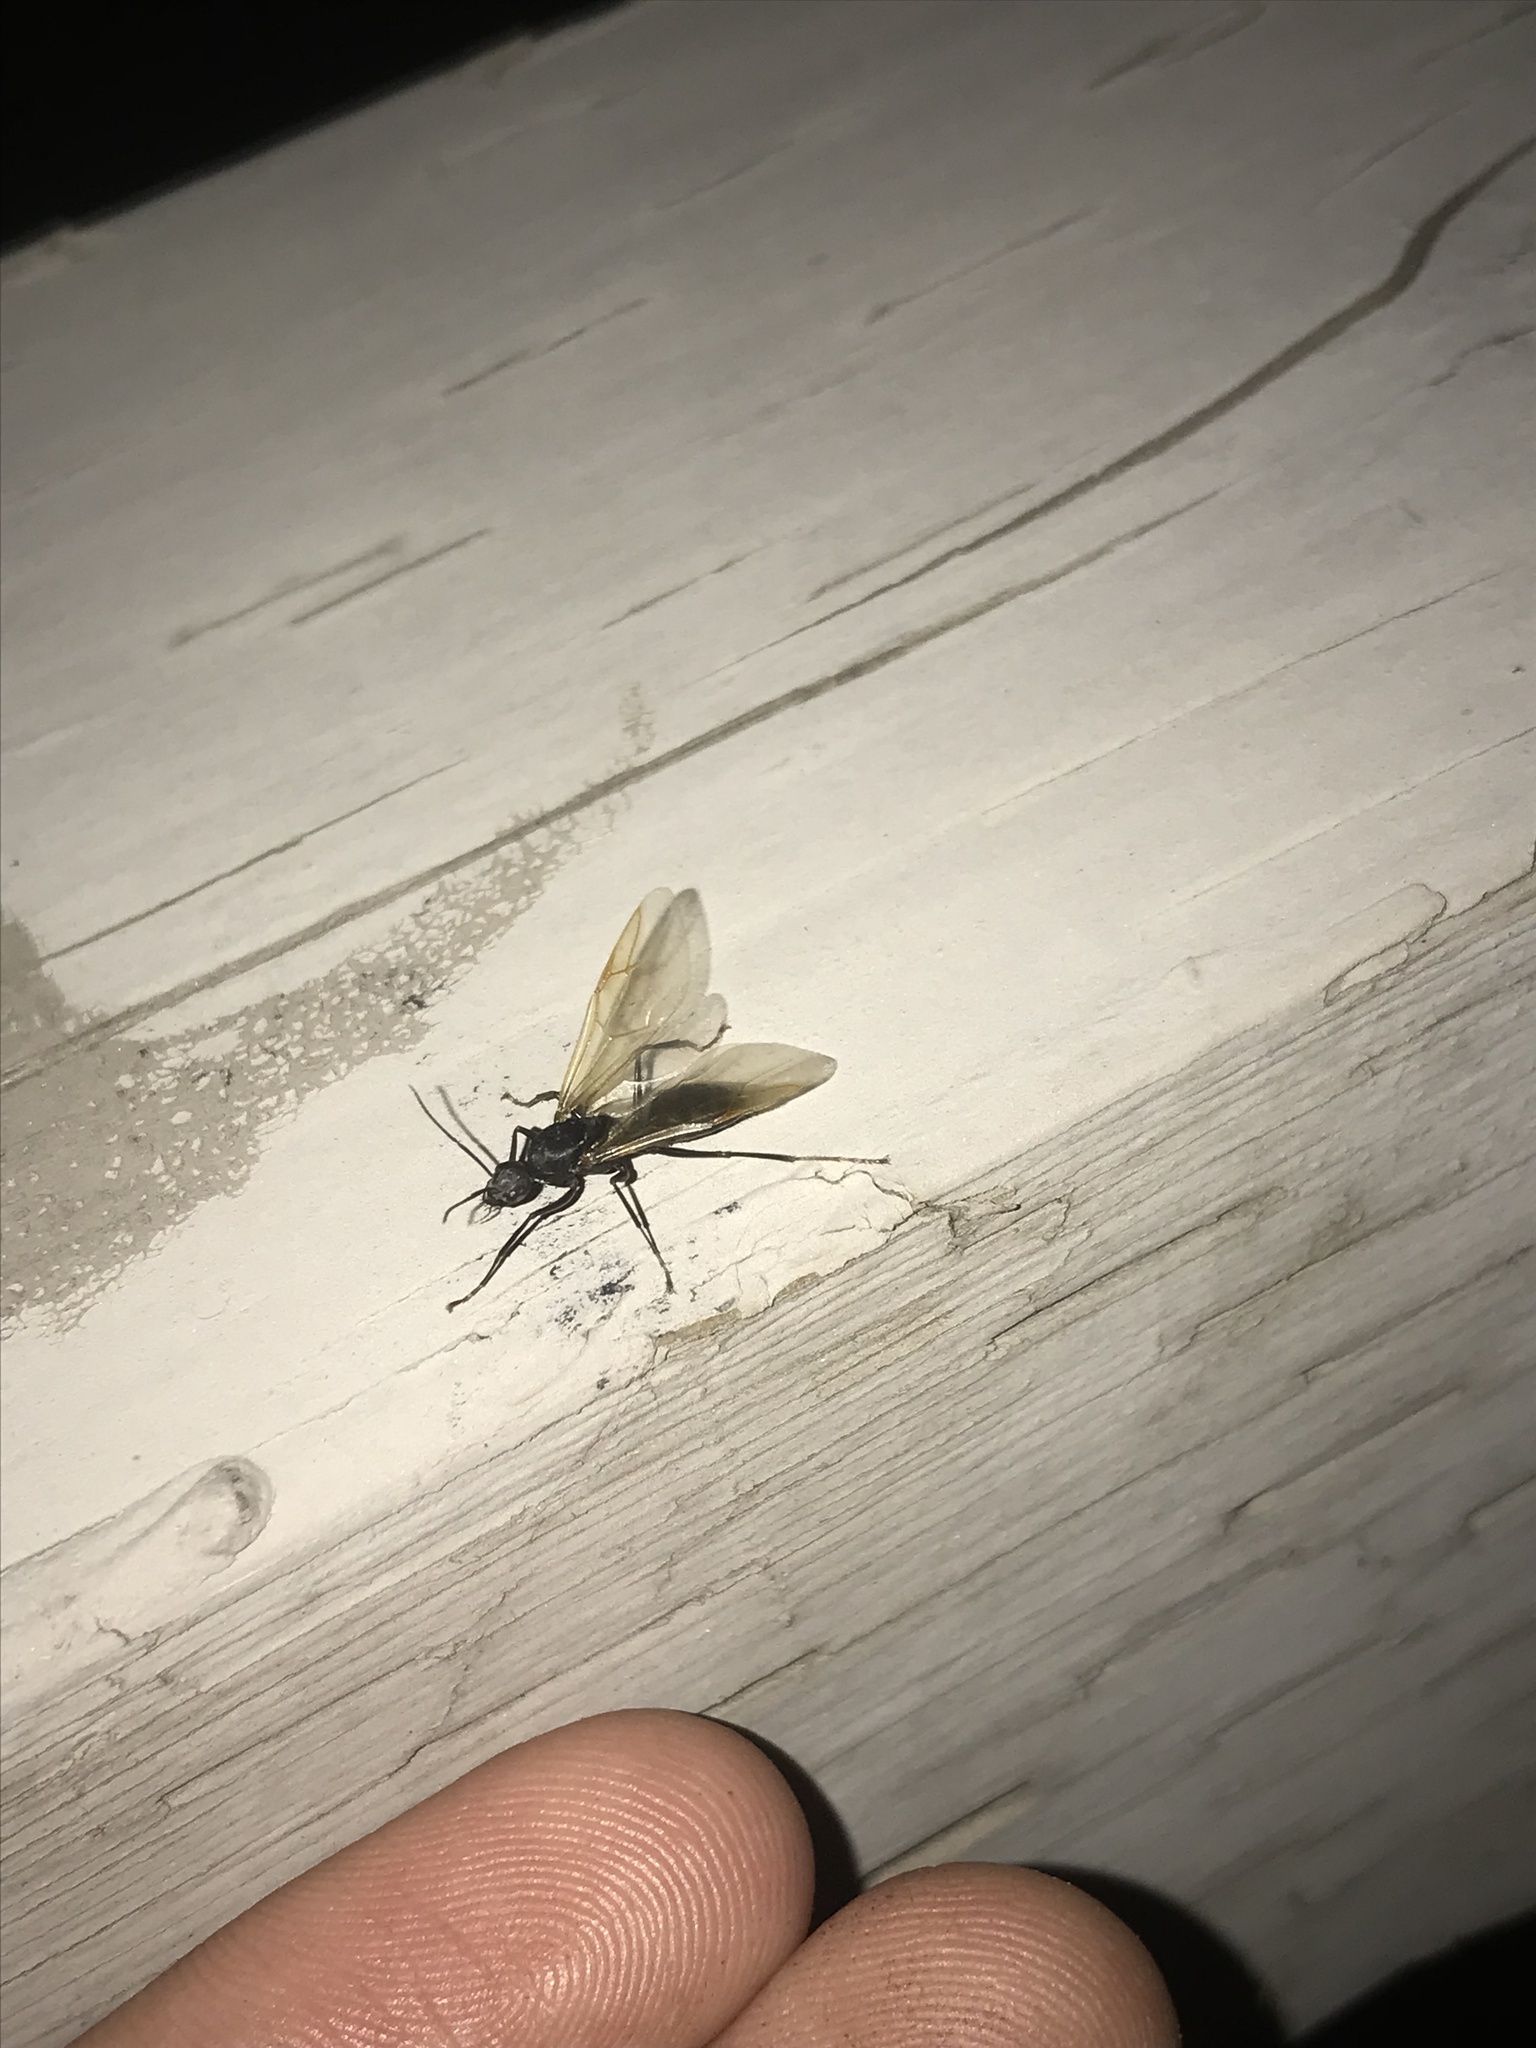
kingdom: Animalia
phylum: Arthropoda
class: Insecta
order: Hymenoptera
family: Formicidae
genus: Camponotus
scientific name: Camponotus
